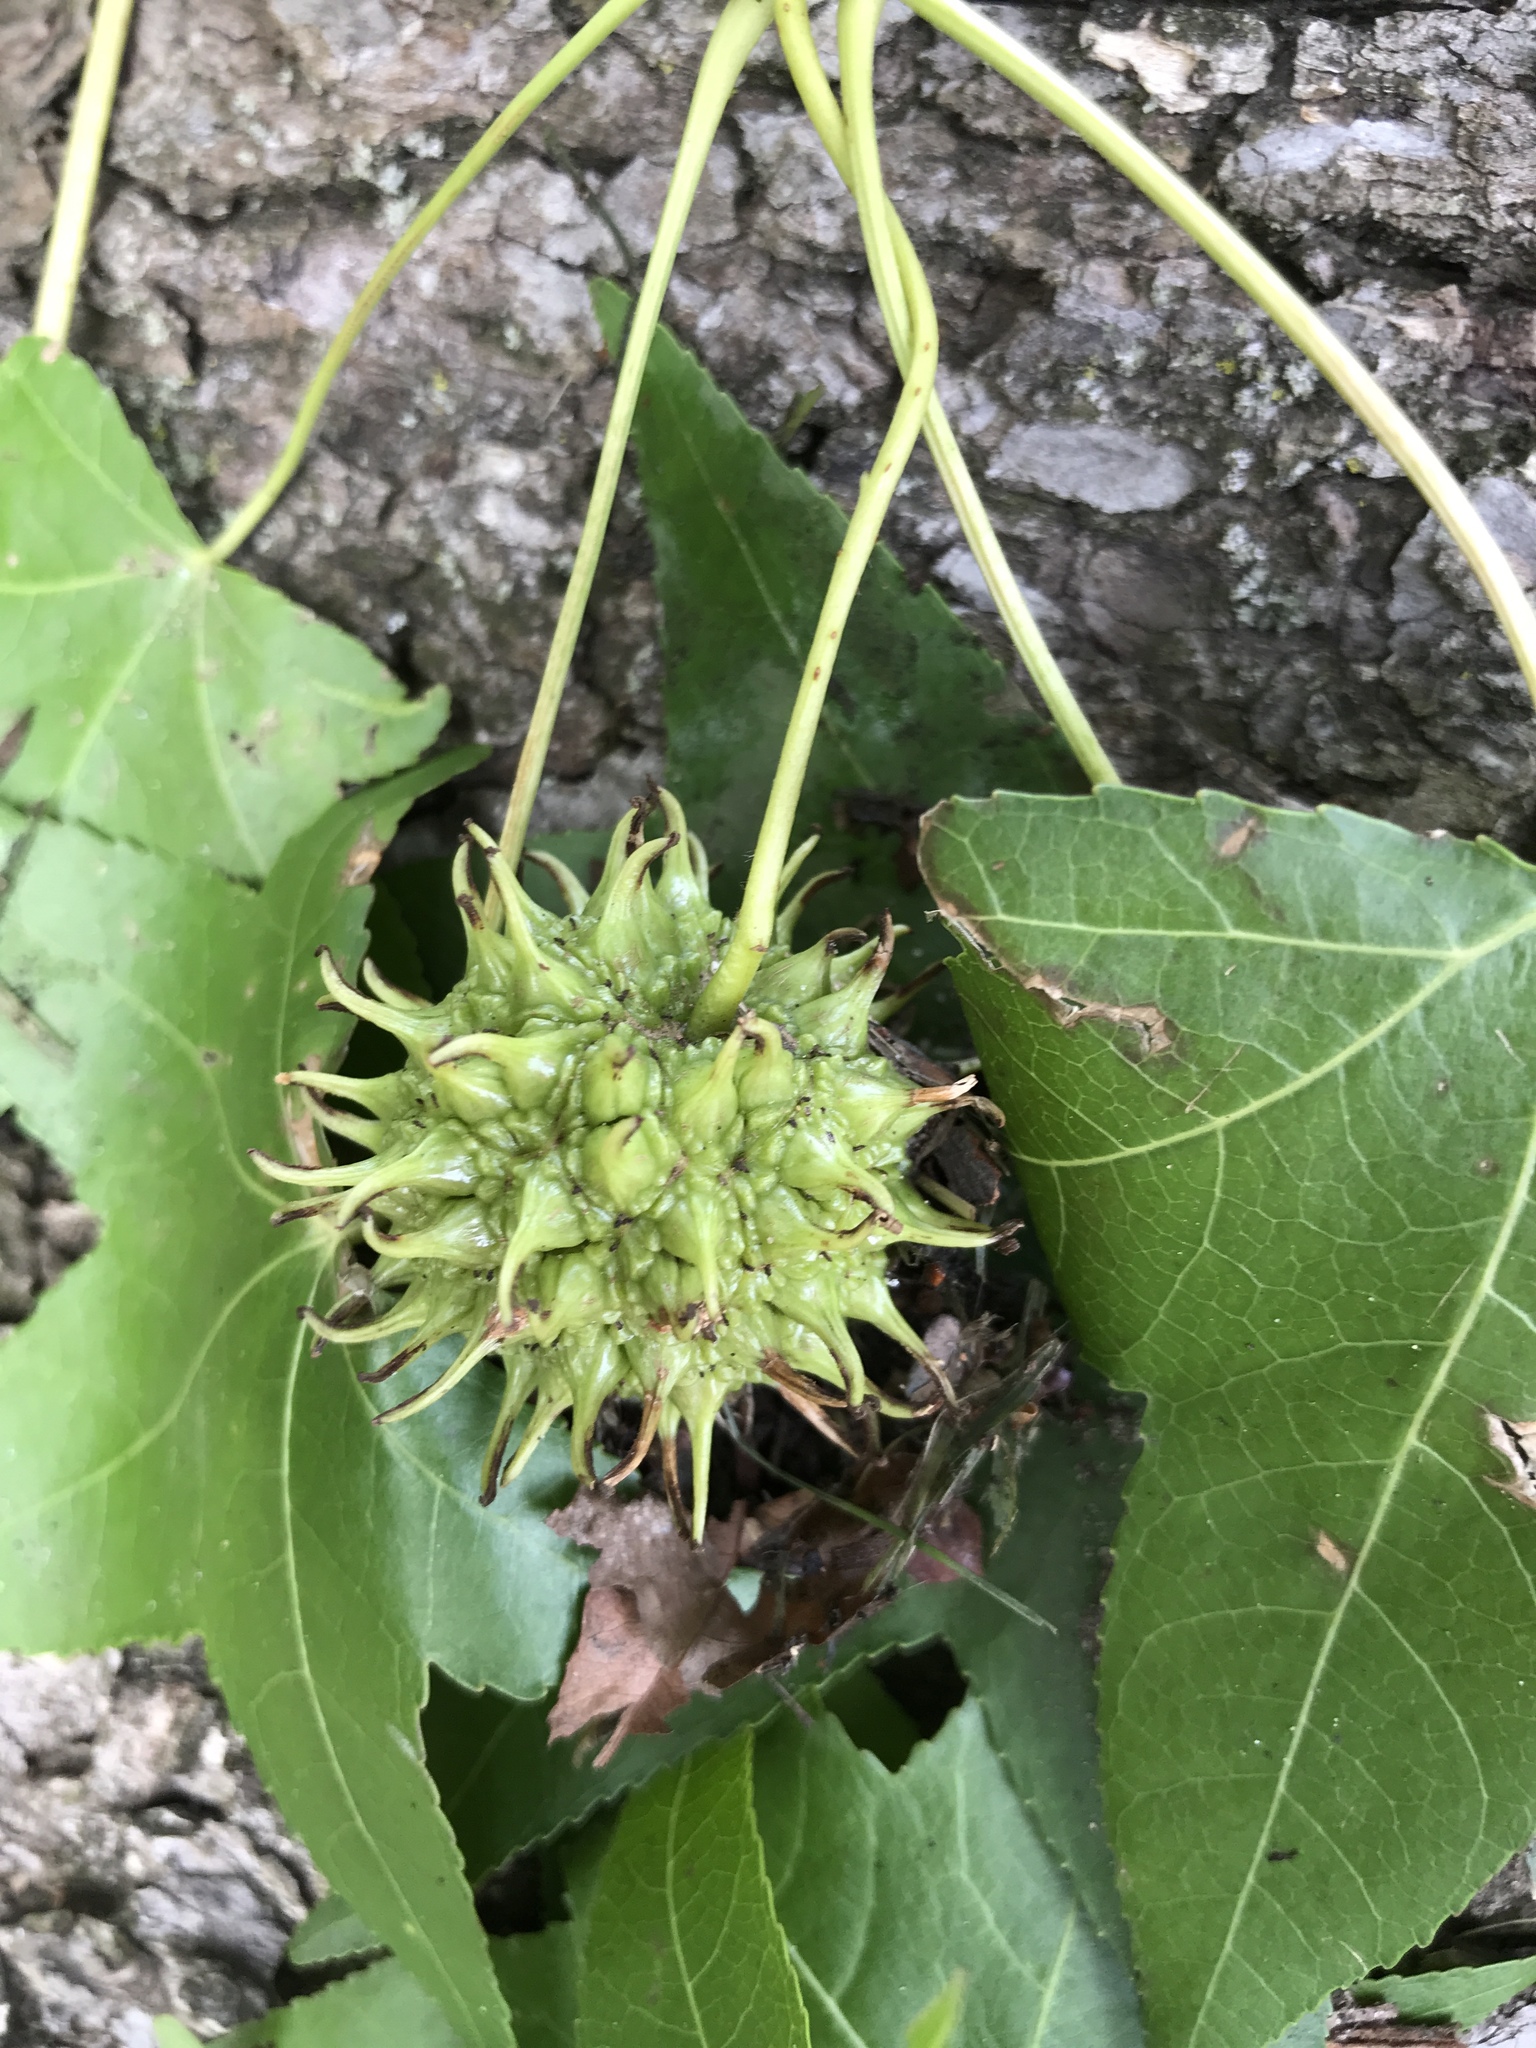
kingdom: Plantae
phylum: Tracheophyta
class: Magnoliopsida
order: Saxifragales
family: Altingiaceae
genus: Liquidambar
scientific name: Liquidambar styraciflua
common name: Sweet gum
